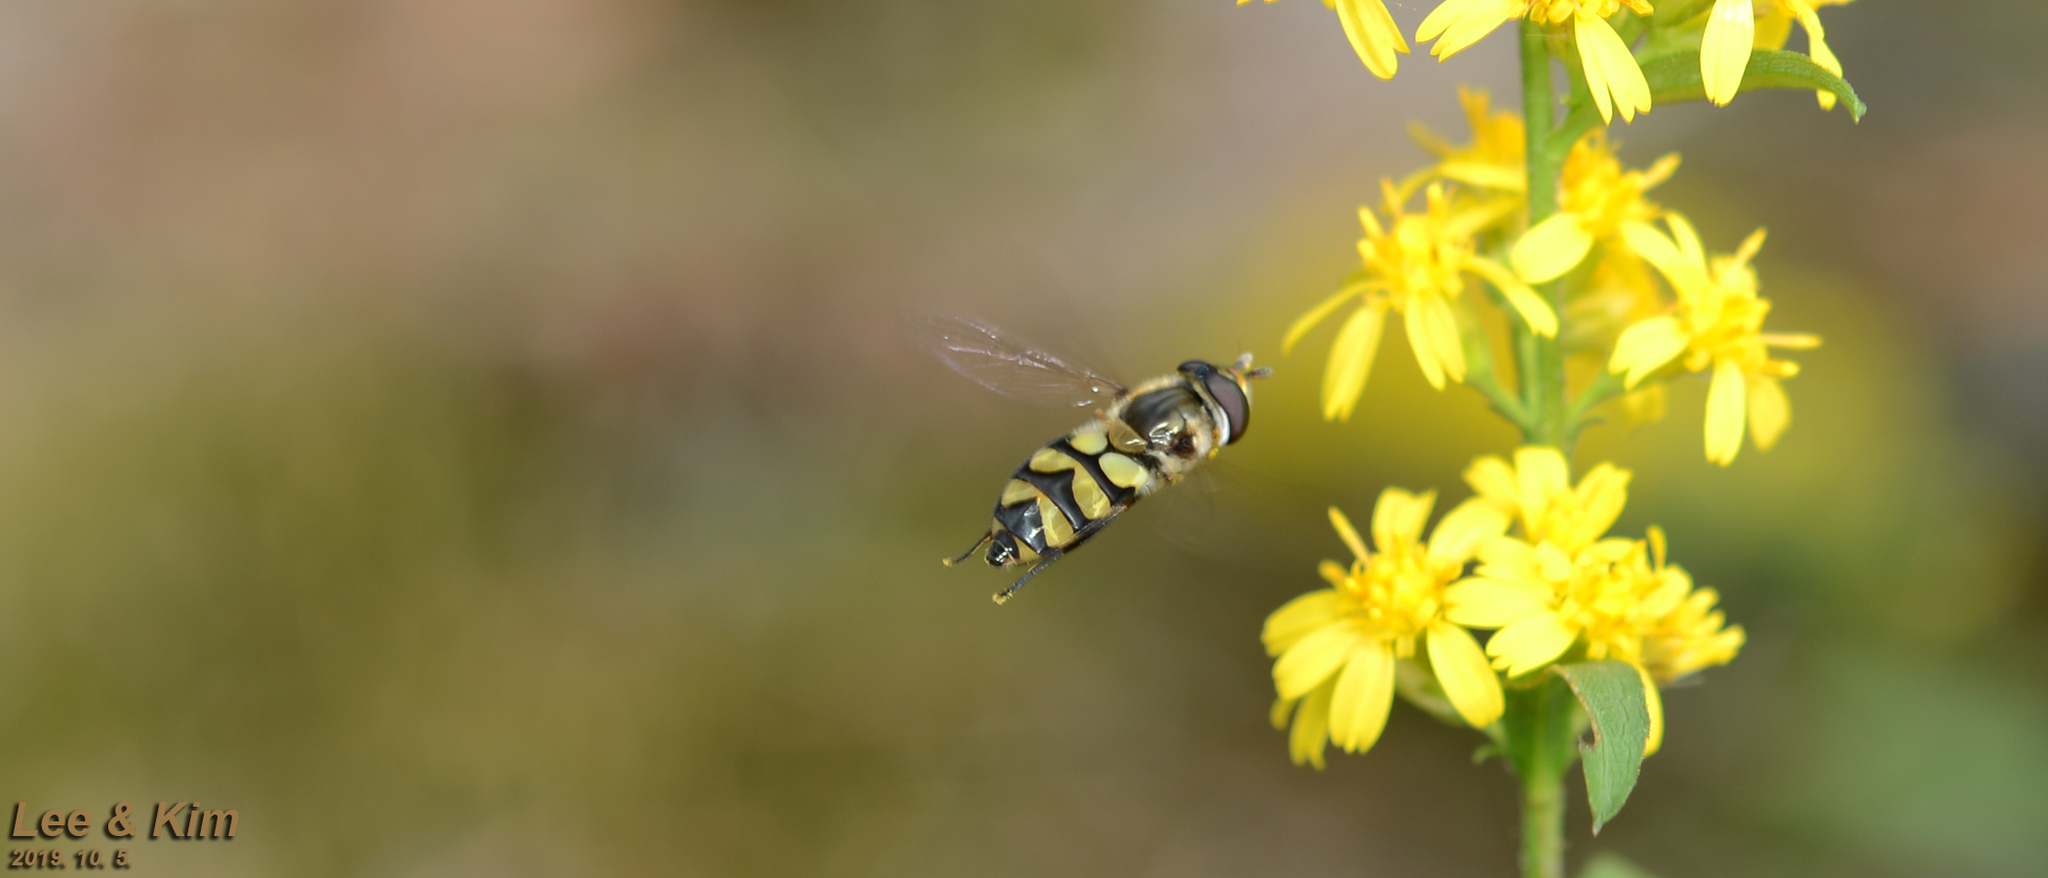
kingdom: Animalia
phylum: Arthropoda
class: Insecta
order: Diptera
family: Syrphidae
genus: Didea
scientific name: Didea fasciata
